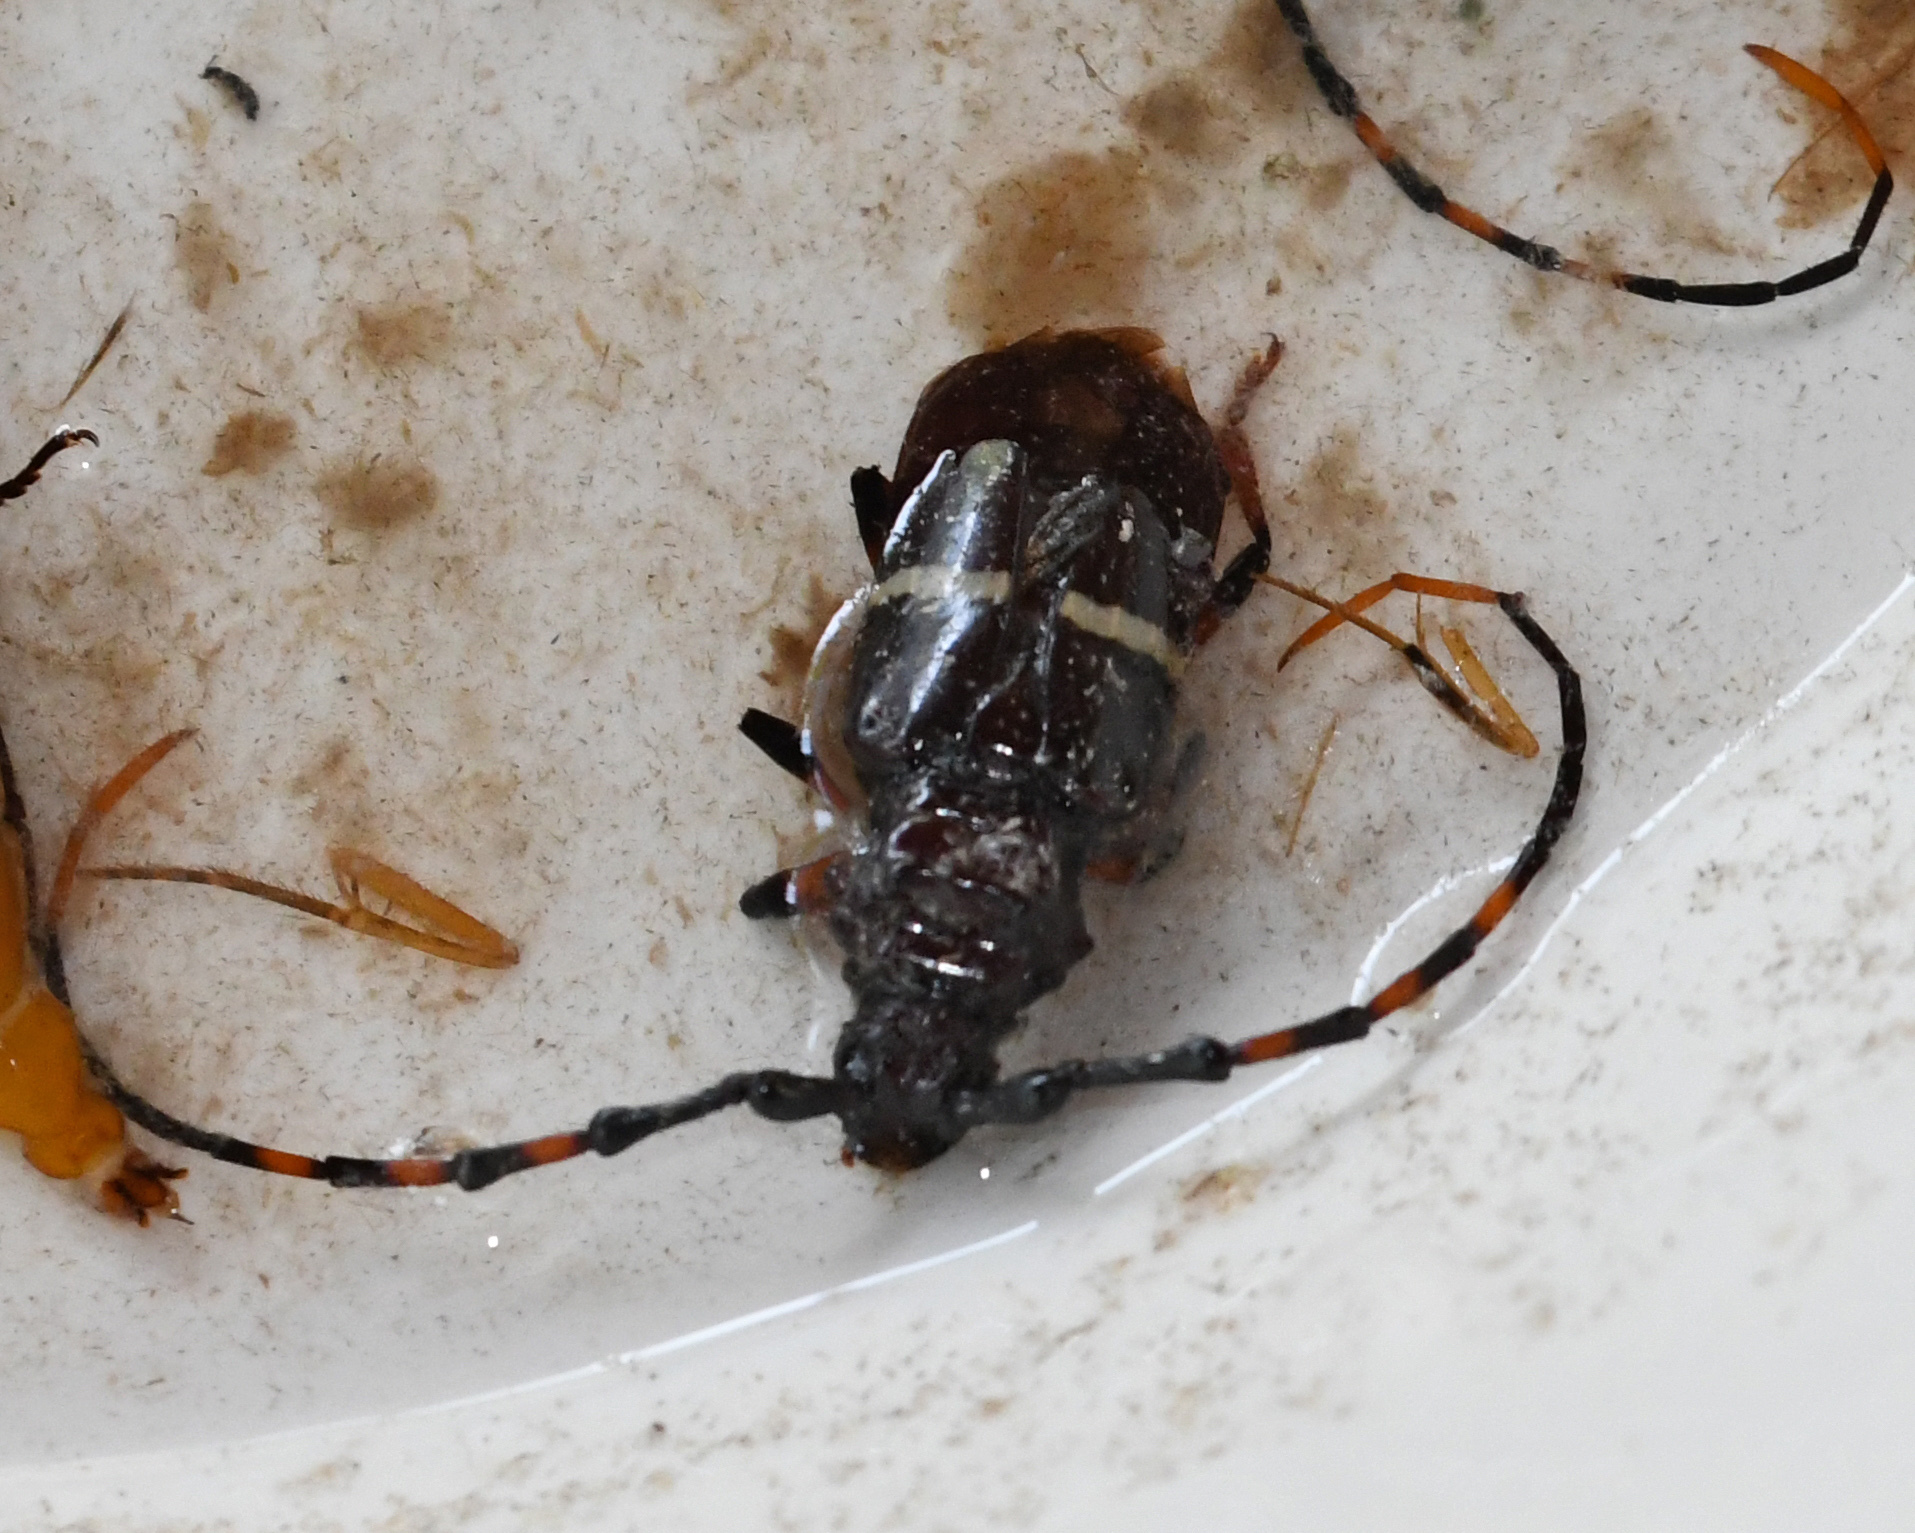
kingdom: Animalia
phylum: Arthropoda
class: Insecta
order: Coleoptera
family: Cerambycidae
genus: Trachyderes
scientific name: Trachyderes succinctus
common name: Mango longhorn
